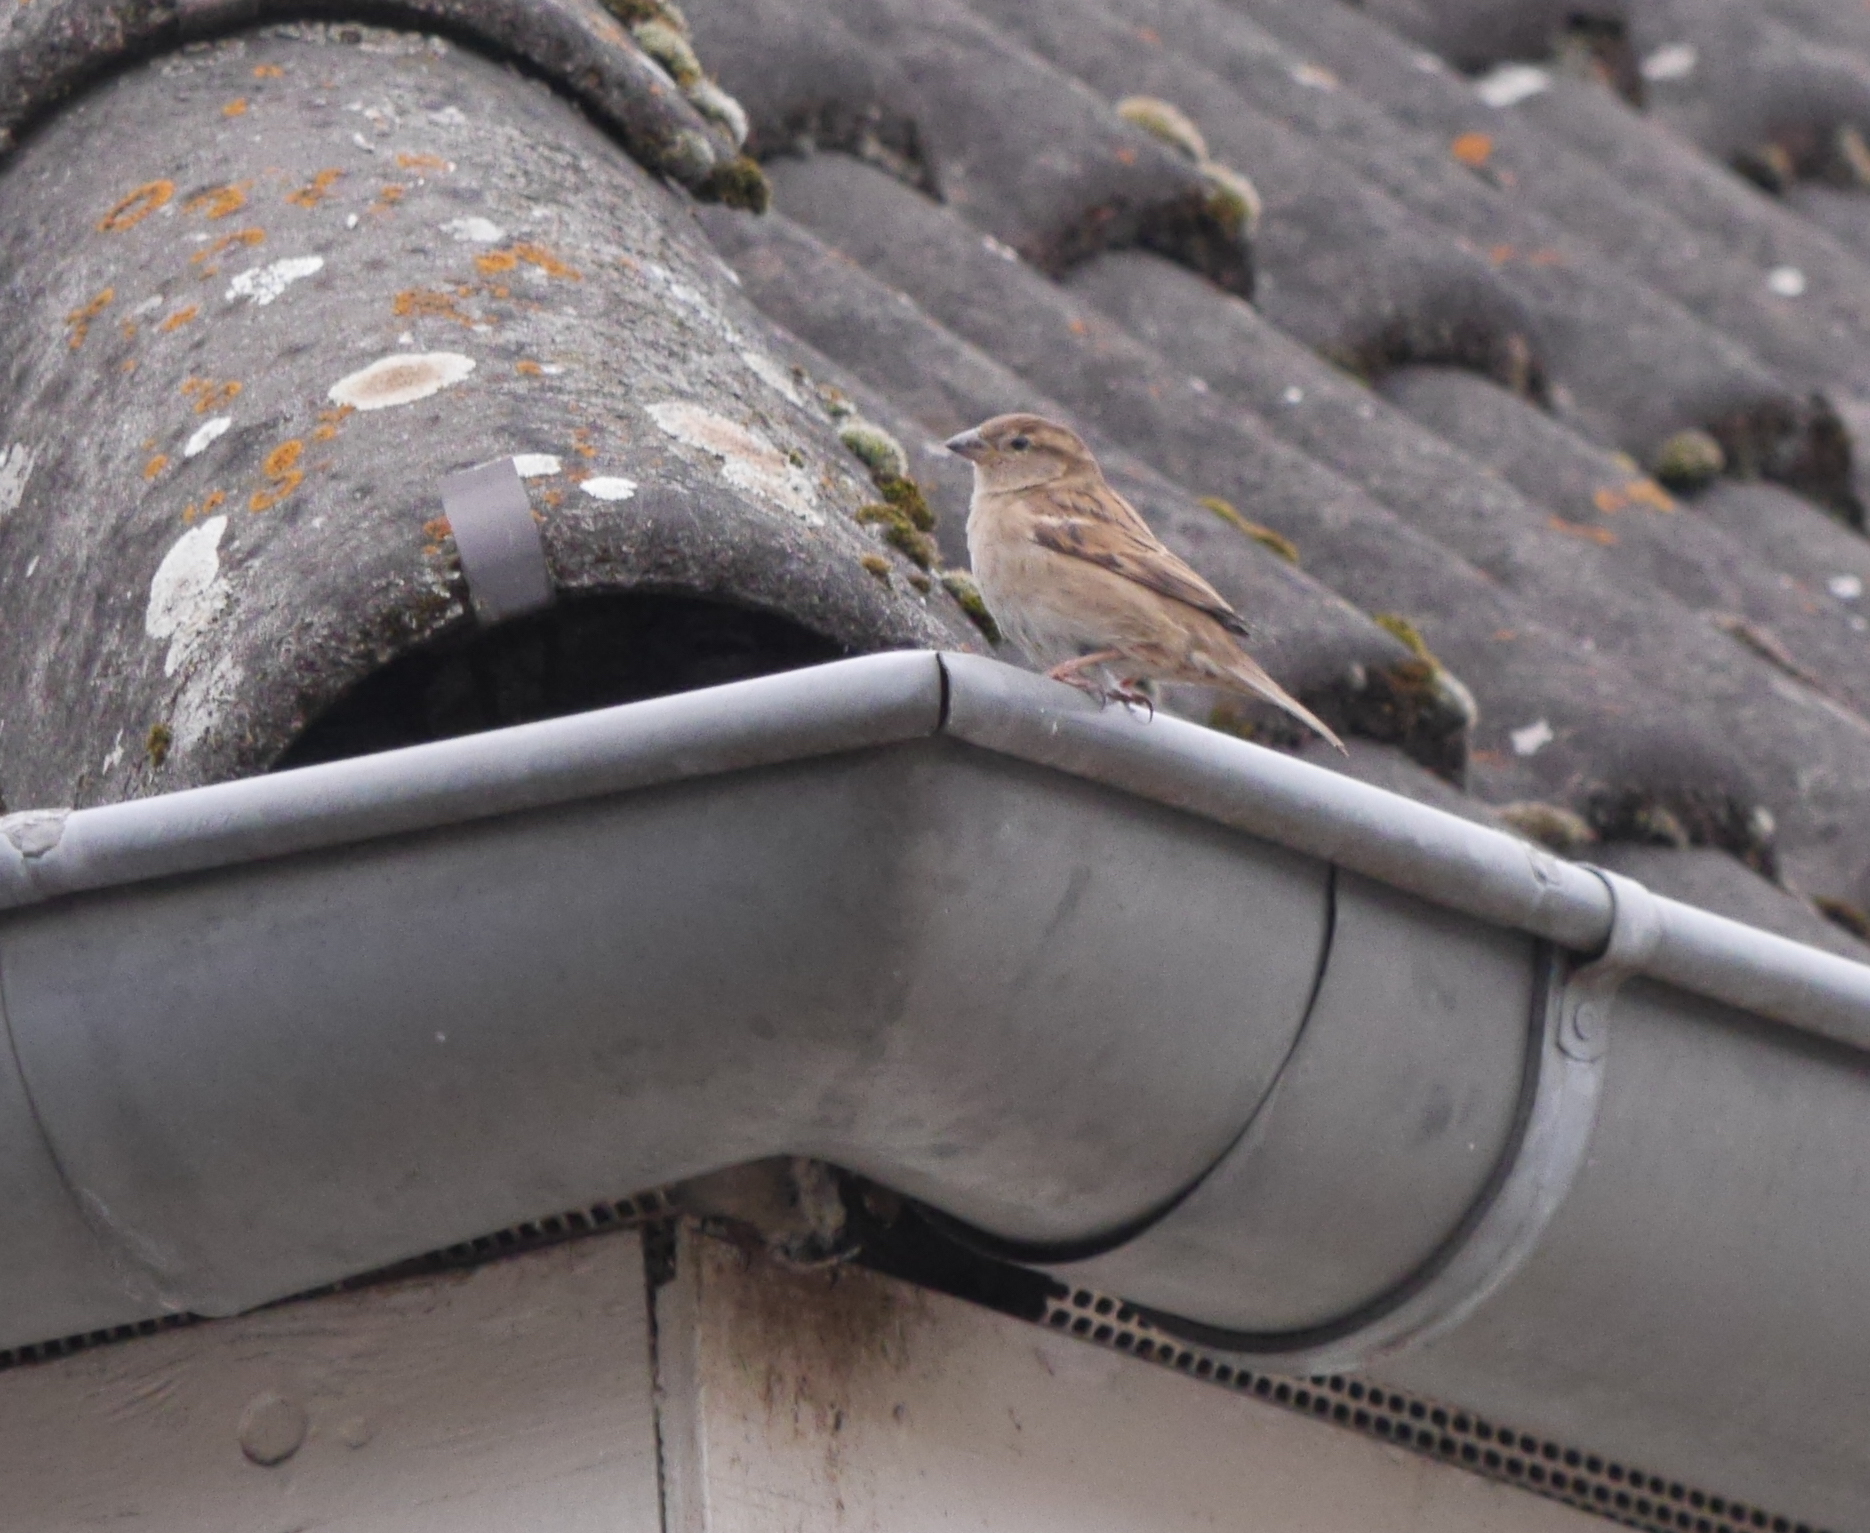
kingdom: Animalia
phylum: Chordata
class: Aves
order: Passeriformes
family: Passeridae
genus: Passer
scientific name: Passer domesticus
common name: House sparrow
